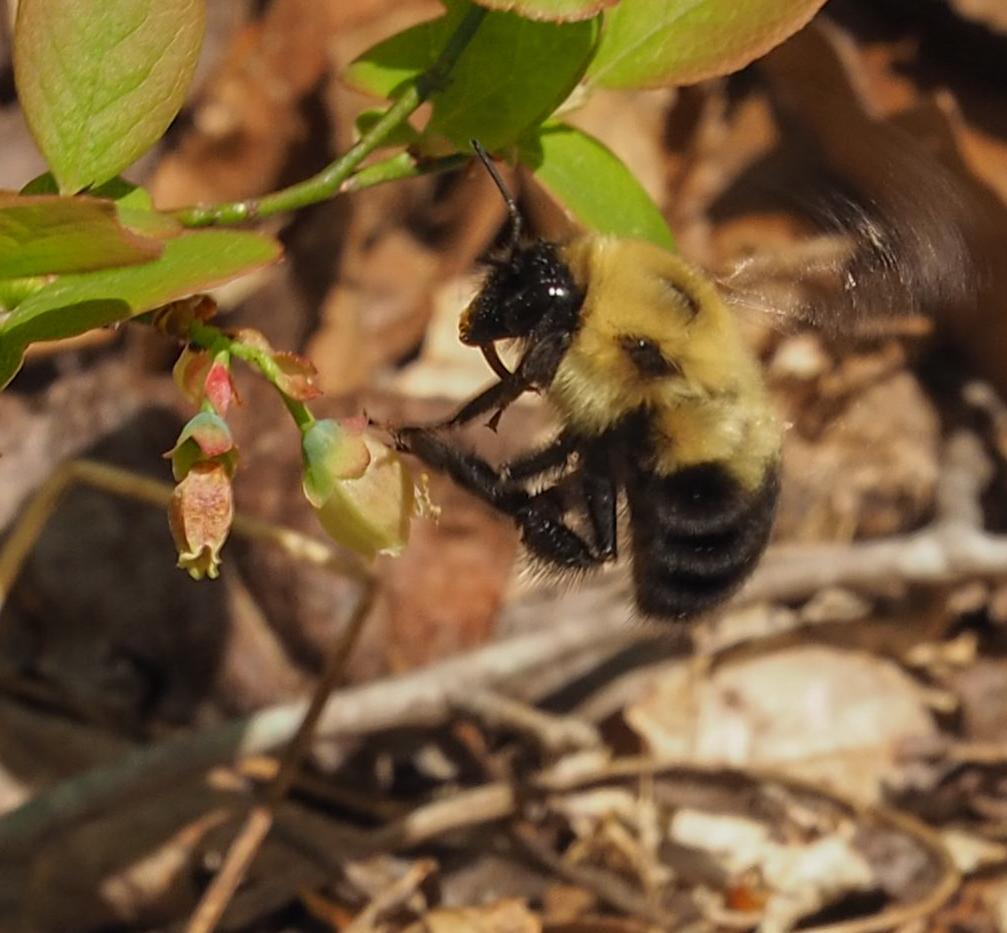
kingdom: Animalia
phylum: Arthropoda
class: Insecta
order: Hymenoptera
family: Apidae
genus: Bombus
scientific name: Bombus bimaculatus
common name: Two-spotted bumble bee
